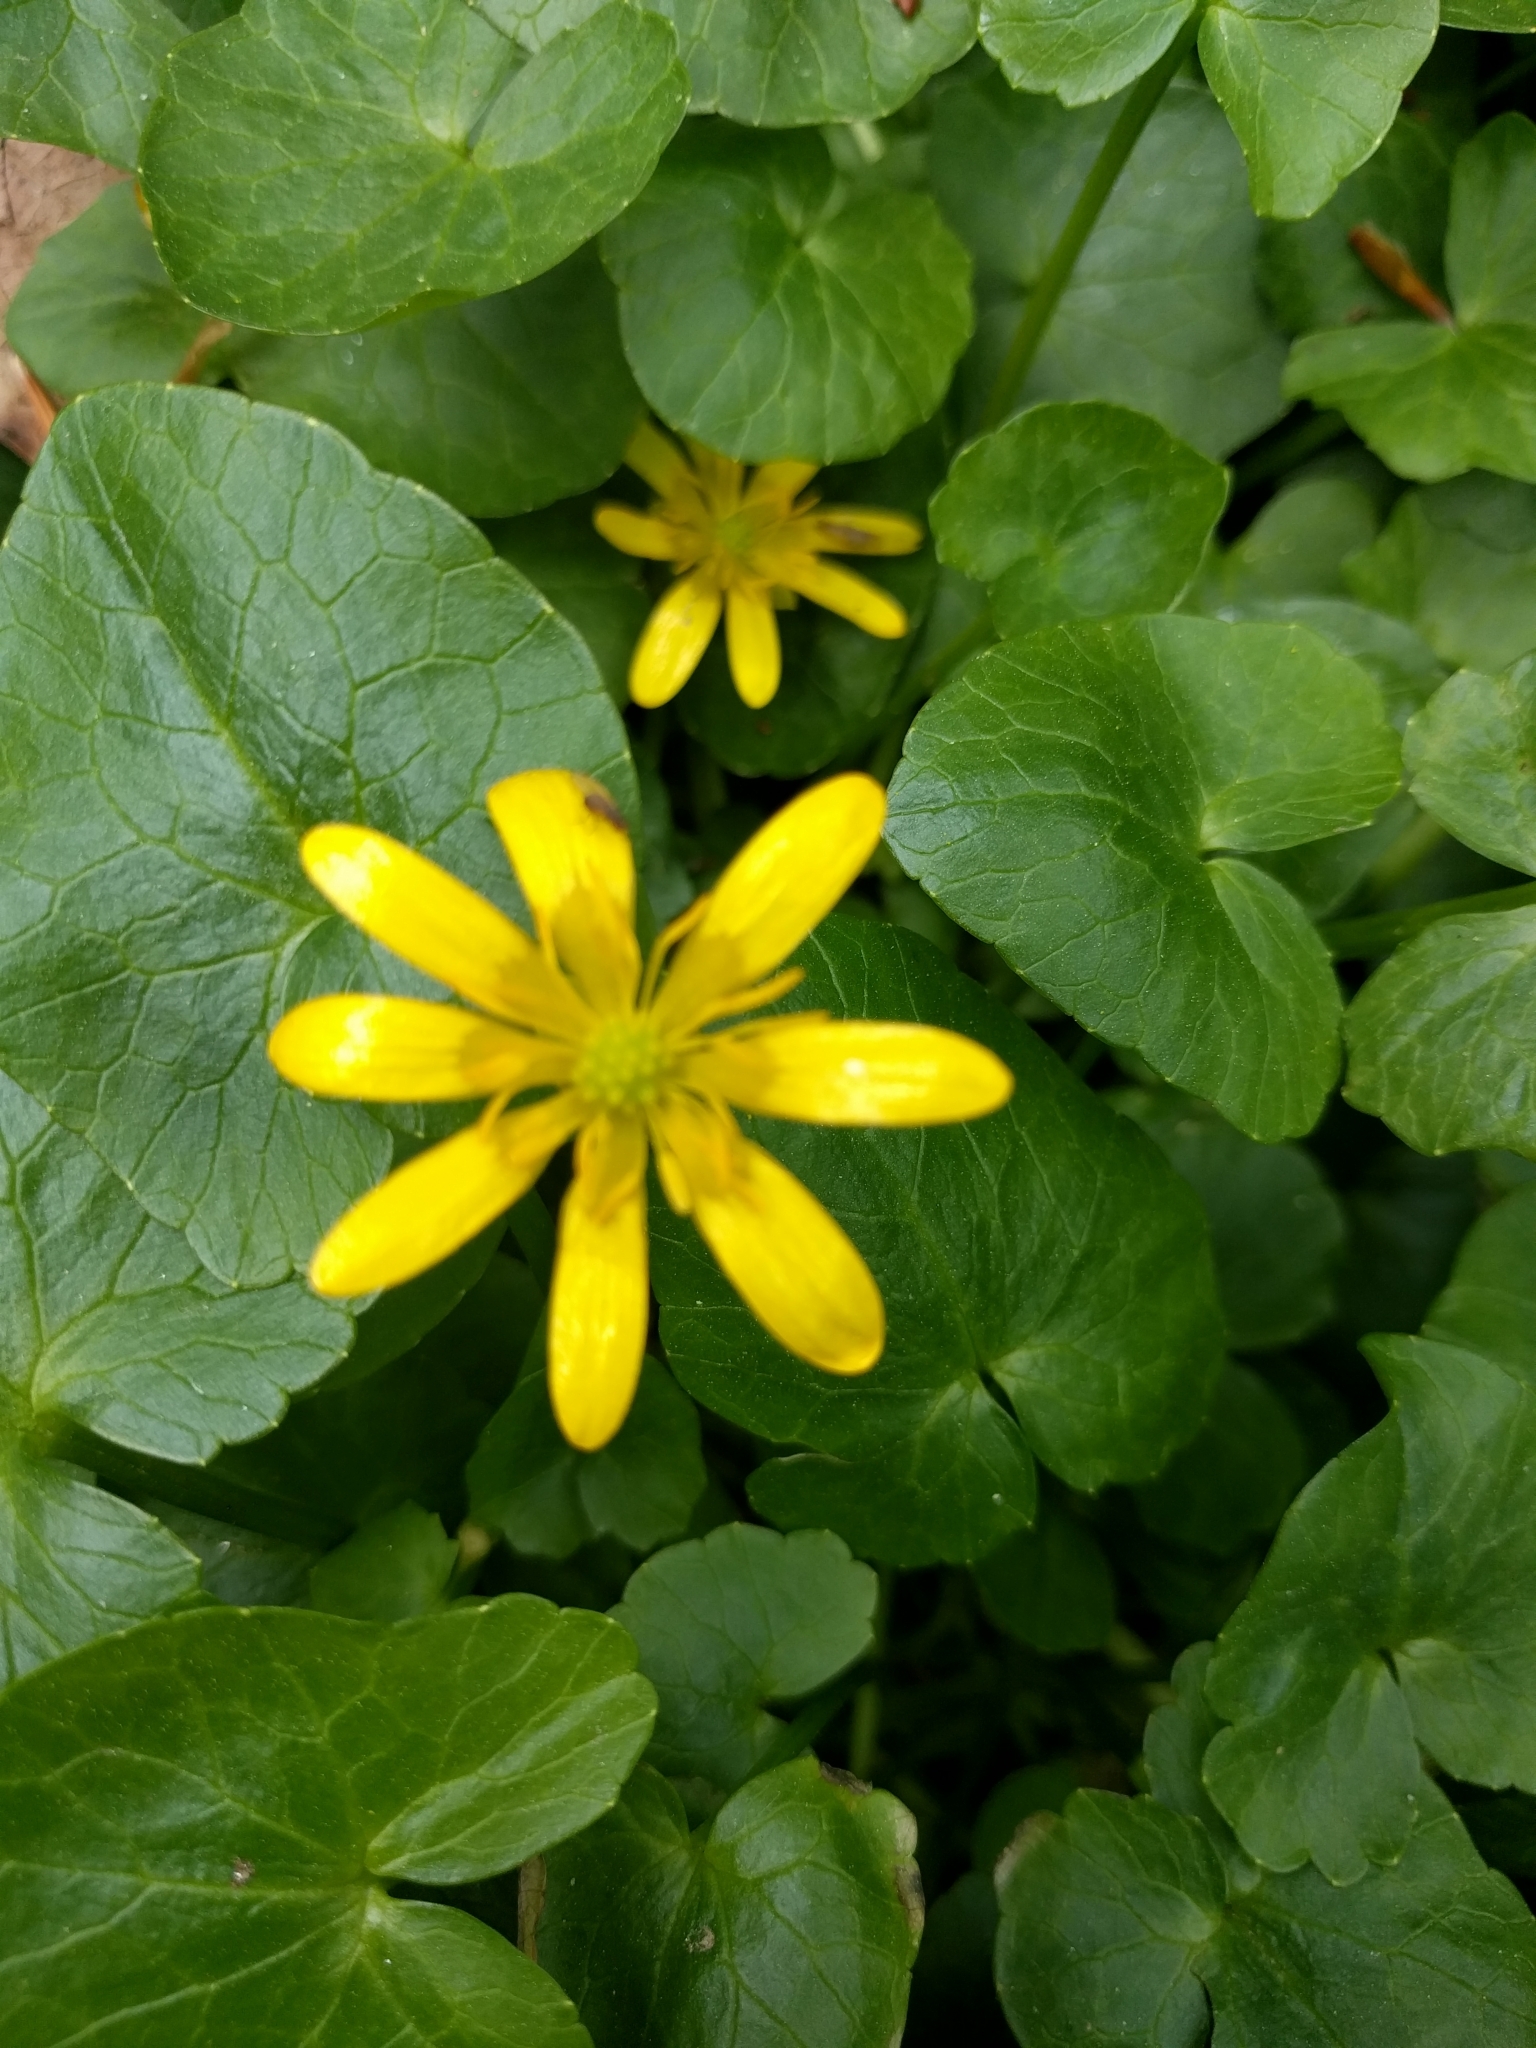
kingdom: Plantae
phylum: Tracheophyta
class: Magnoliopsida
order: Ranunculales
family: Ranunculaceae
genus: Ficaria
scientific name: Ficaria verna
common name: Lesser celandine
